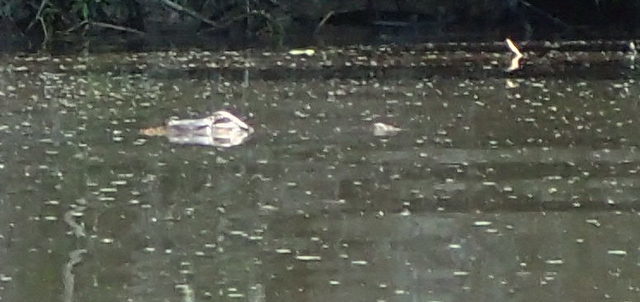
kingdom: Animalia
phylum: Chordata
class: Crocodylia
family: Alligatoridae
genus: Alligator
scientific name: Alligator mississippiensis
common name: American alligator
